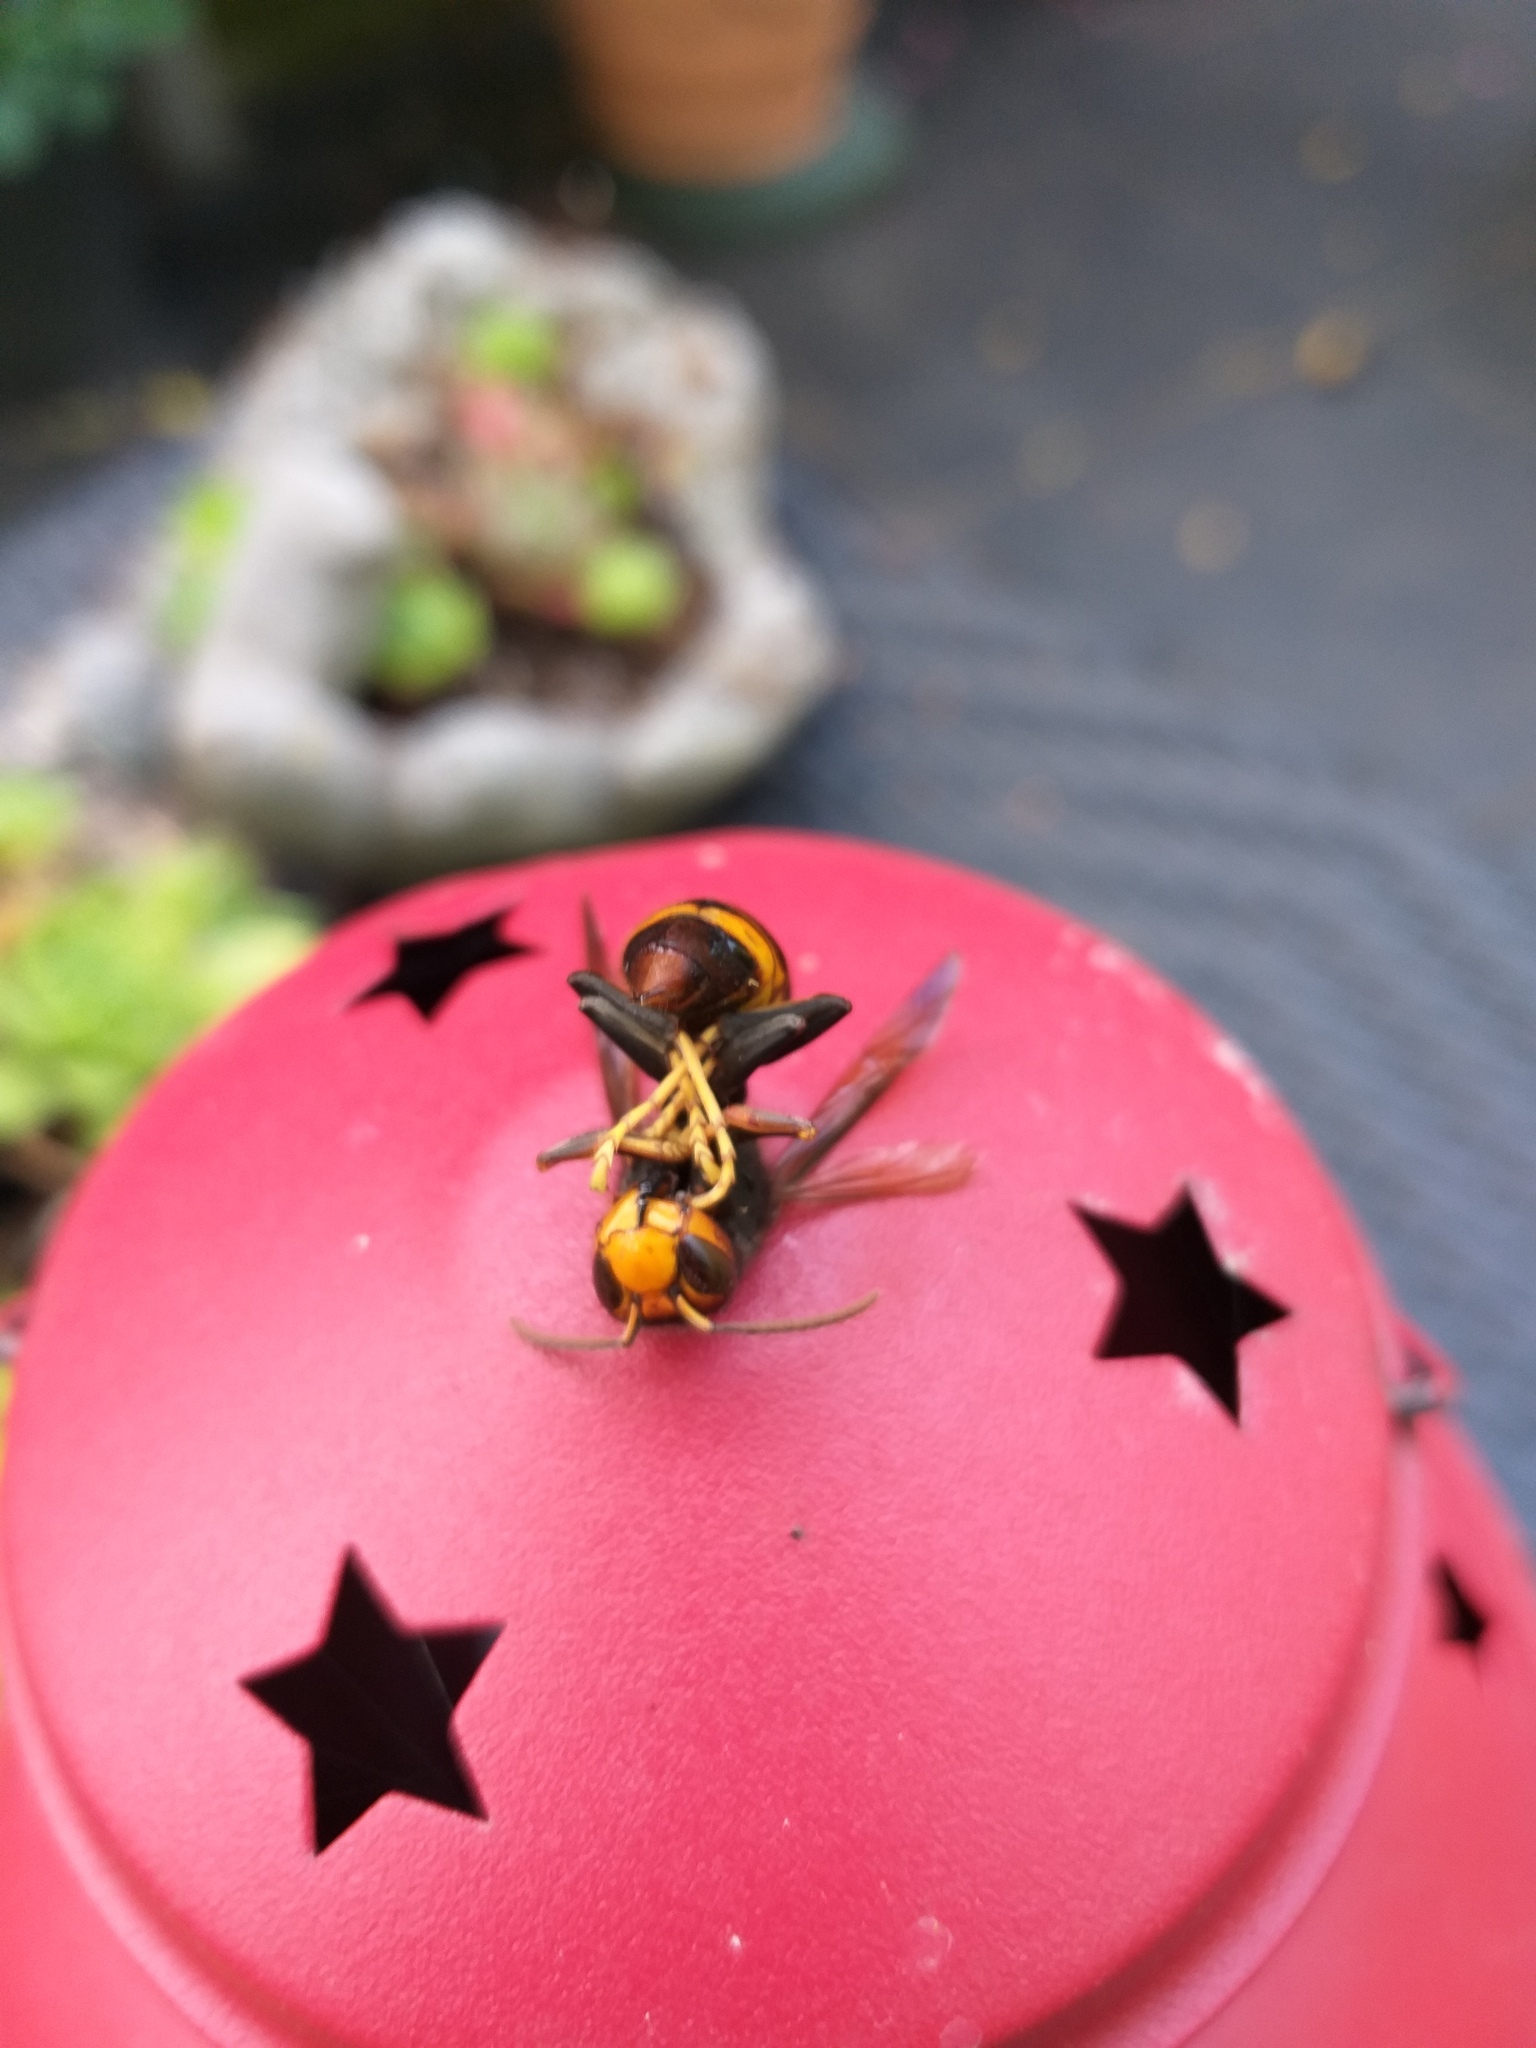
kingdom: Animalia
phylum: Arthropoda
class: Insecta
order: Hymenoptera
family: Vespidae
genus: Vespa
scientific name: Vespa velutina
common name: Asian hornet
